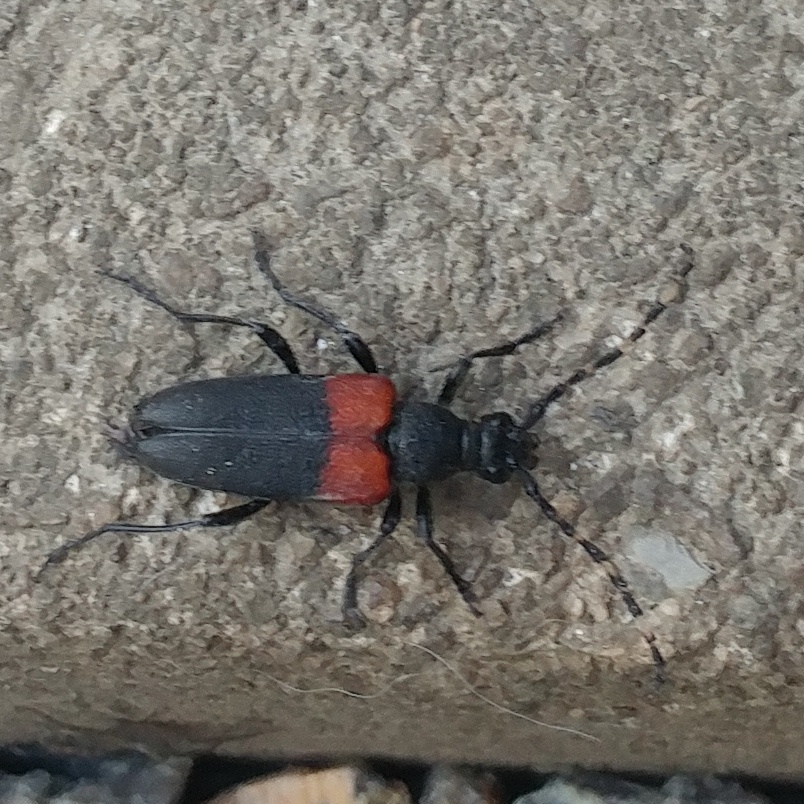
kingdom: Animalia
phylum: Arthropoda
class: Insecta
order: Coleoptera
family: Cerambycidae
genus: Stictoleptura
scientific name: Stictoleptura canadensis
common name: Red-shouldered pine borer
